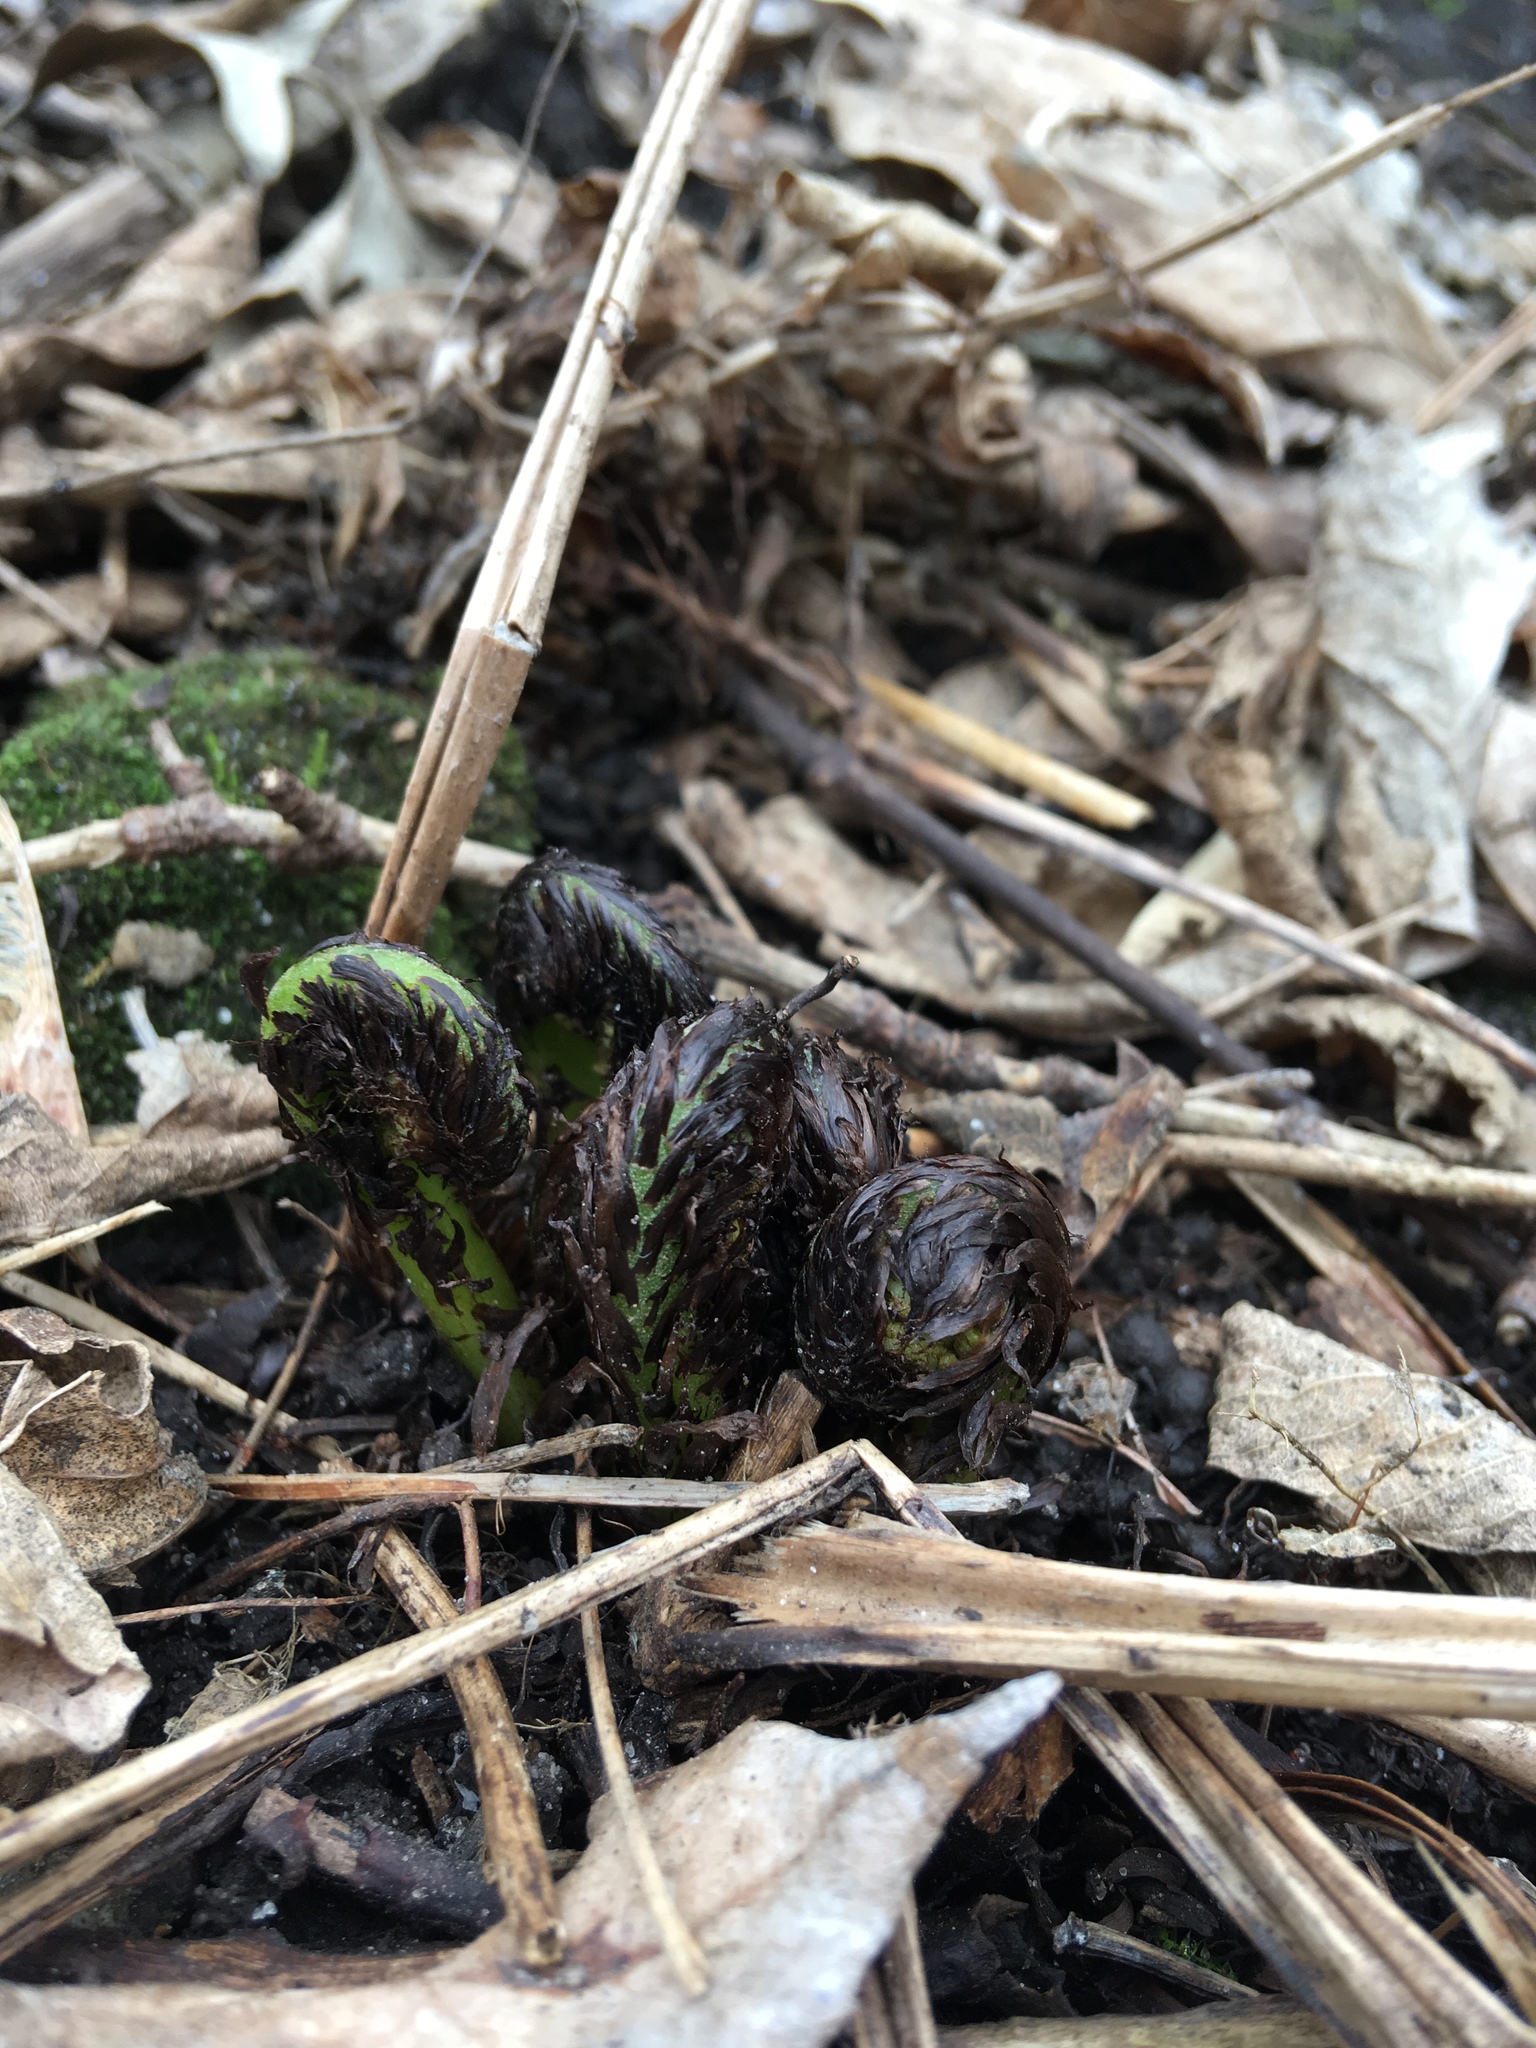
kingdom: Plantae
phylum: Tracheophyta
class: Polypodiopsida
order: Polypodiales
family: Athyriaceae
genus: Athyrium
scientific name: Athyrium angustum
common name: Northern lady fern
